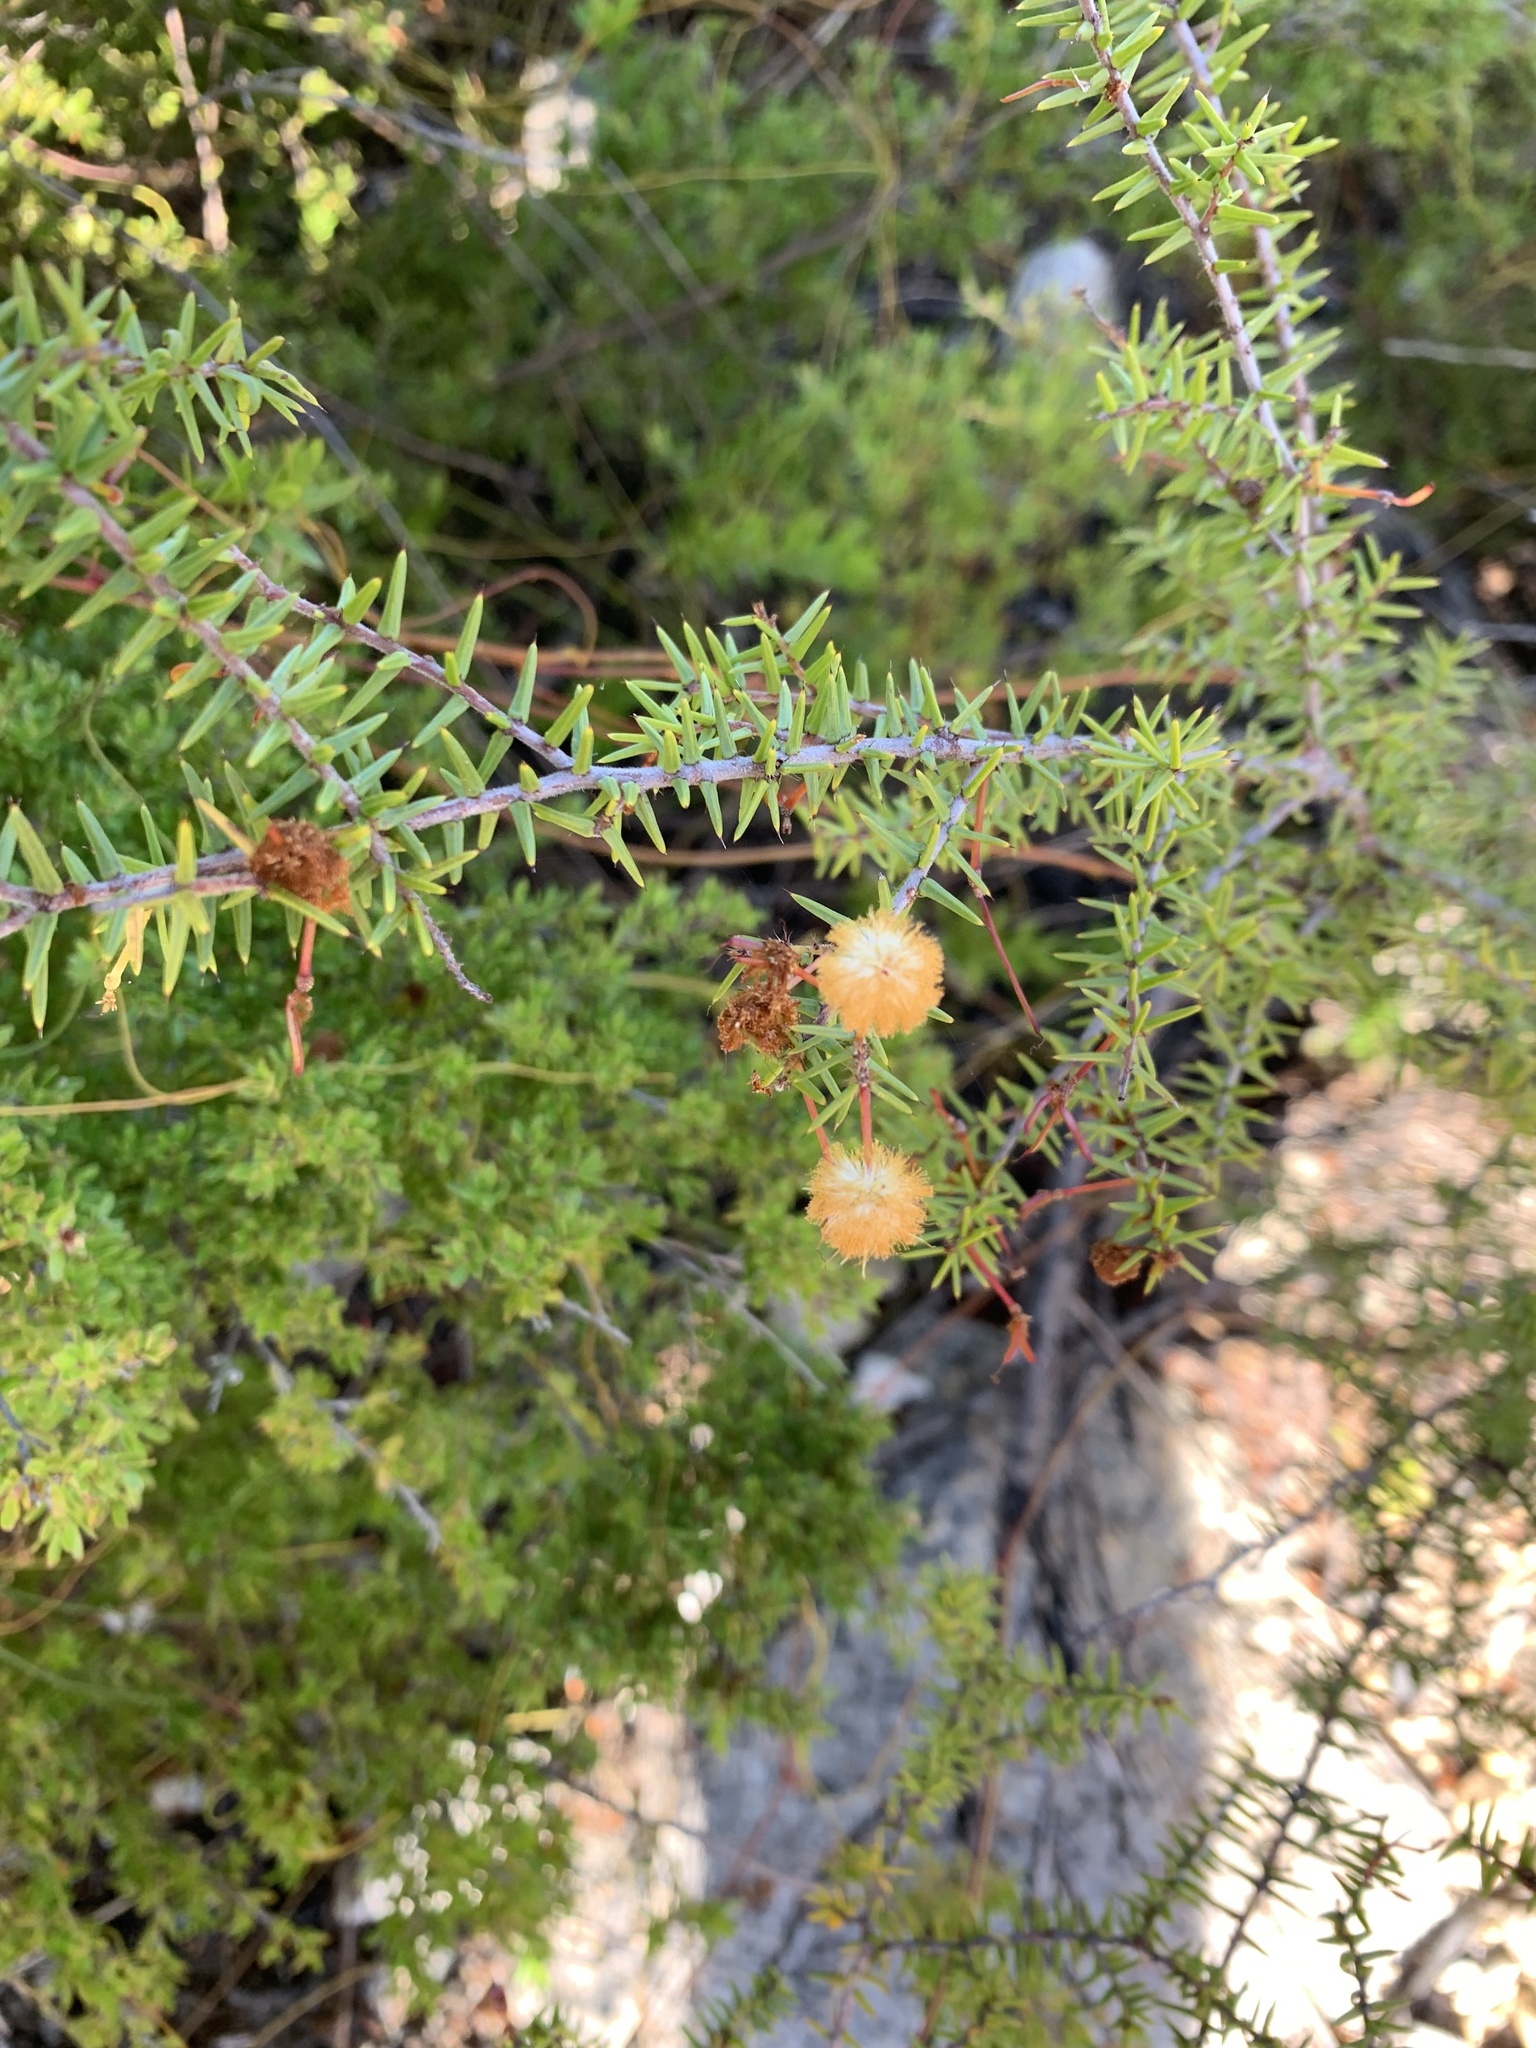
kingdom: Plantae
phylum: Tracheophyta
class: Magnoliopsida
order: Fabales
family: Fabaceae
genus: Acacia
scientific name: Acacia ulicifolia
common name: Juniper wattle
